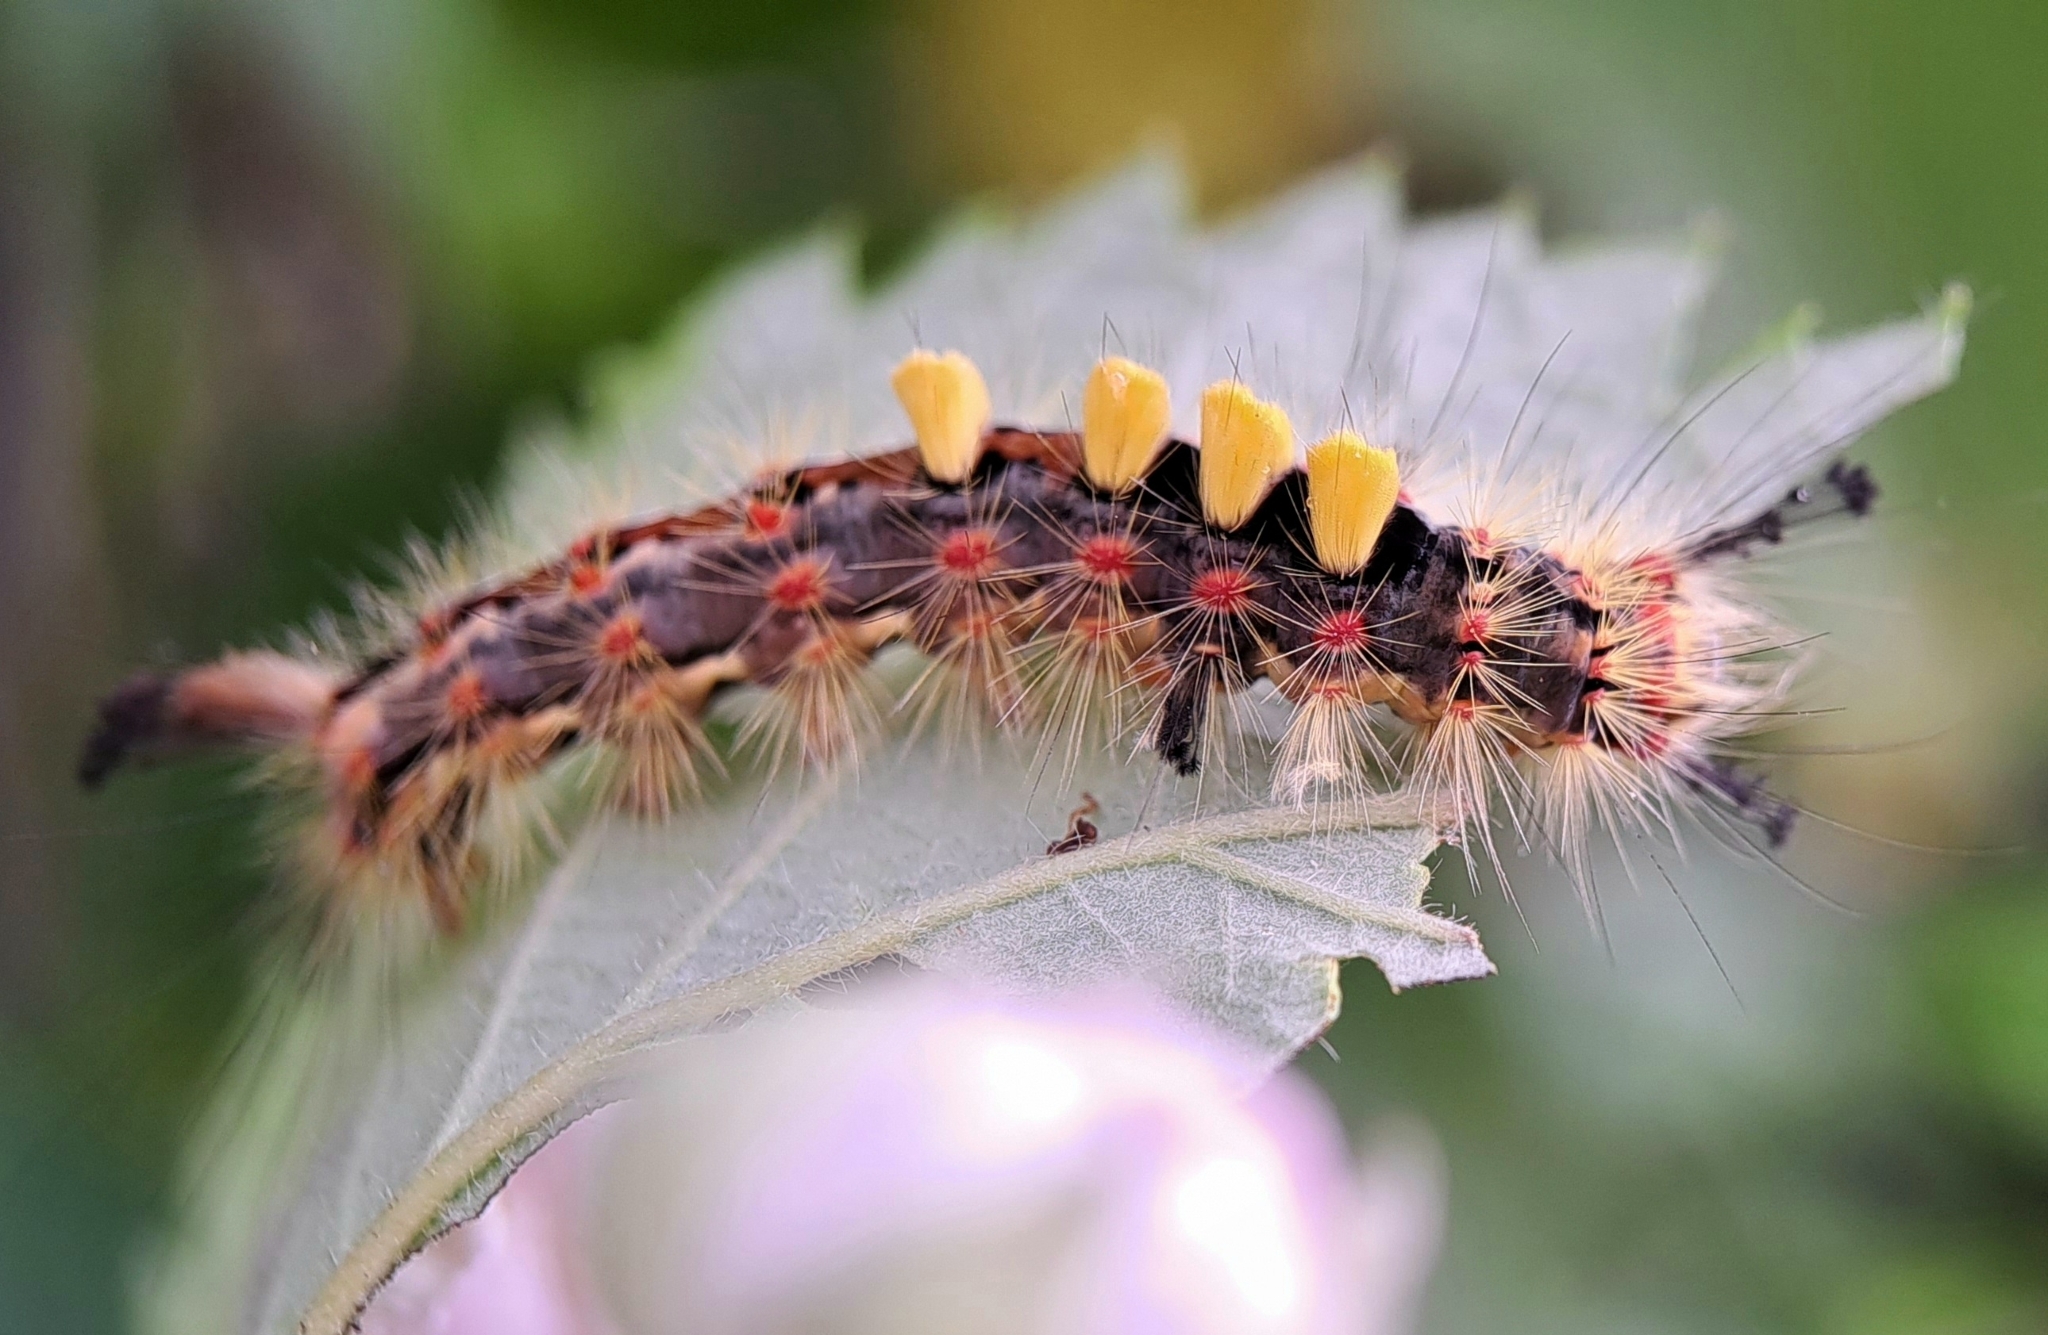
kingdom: Animalia
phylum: Arthropoda
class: Insecta
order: Lepidoptera
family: Erebidae
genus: Orgyia
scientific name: Orgyia antiqua
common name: Vapourer
